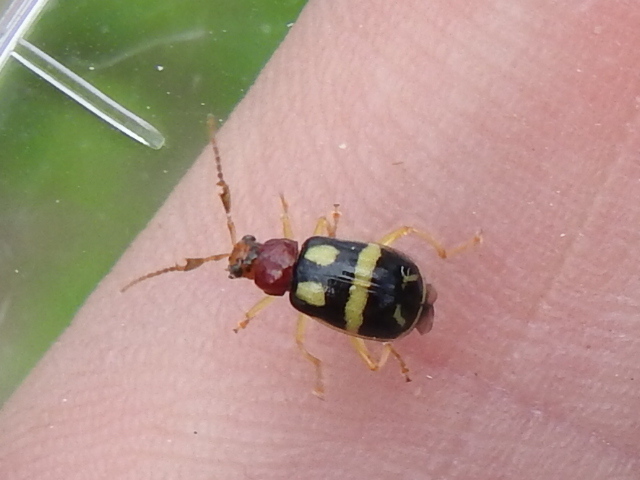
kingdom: Animalia
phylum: Arthropoda
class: Insecta
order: Coleoptera
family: Chrysomelidae
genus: Cerotoma
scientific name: Cerotoma
